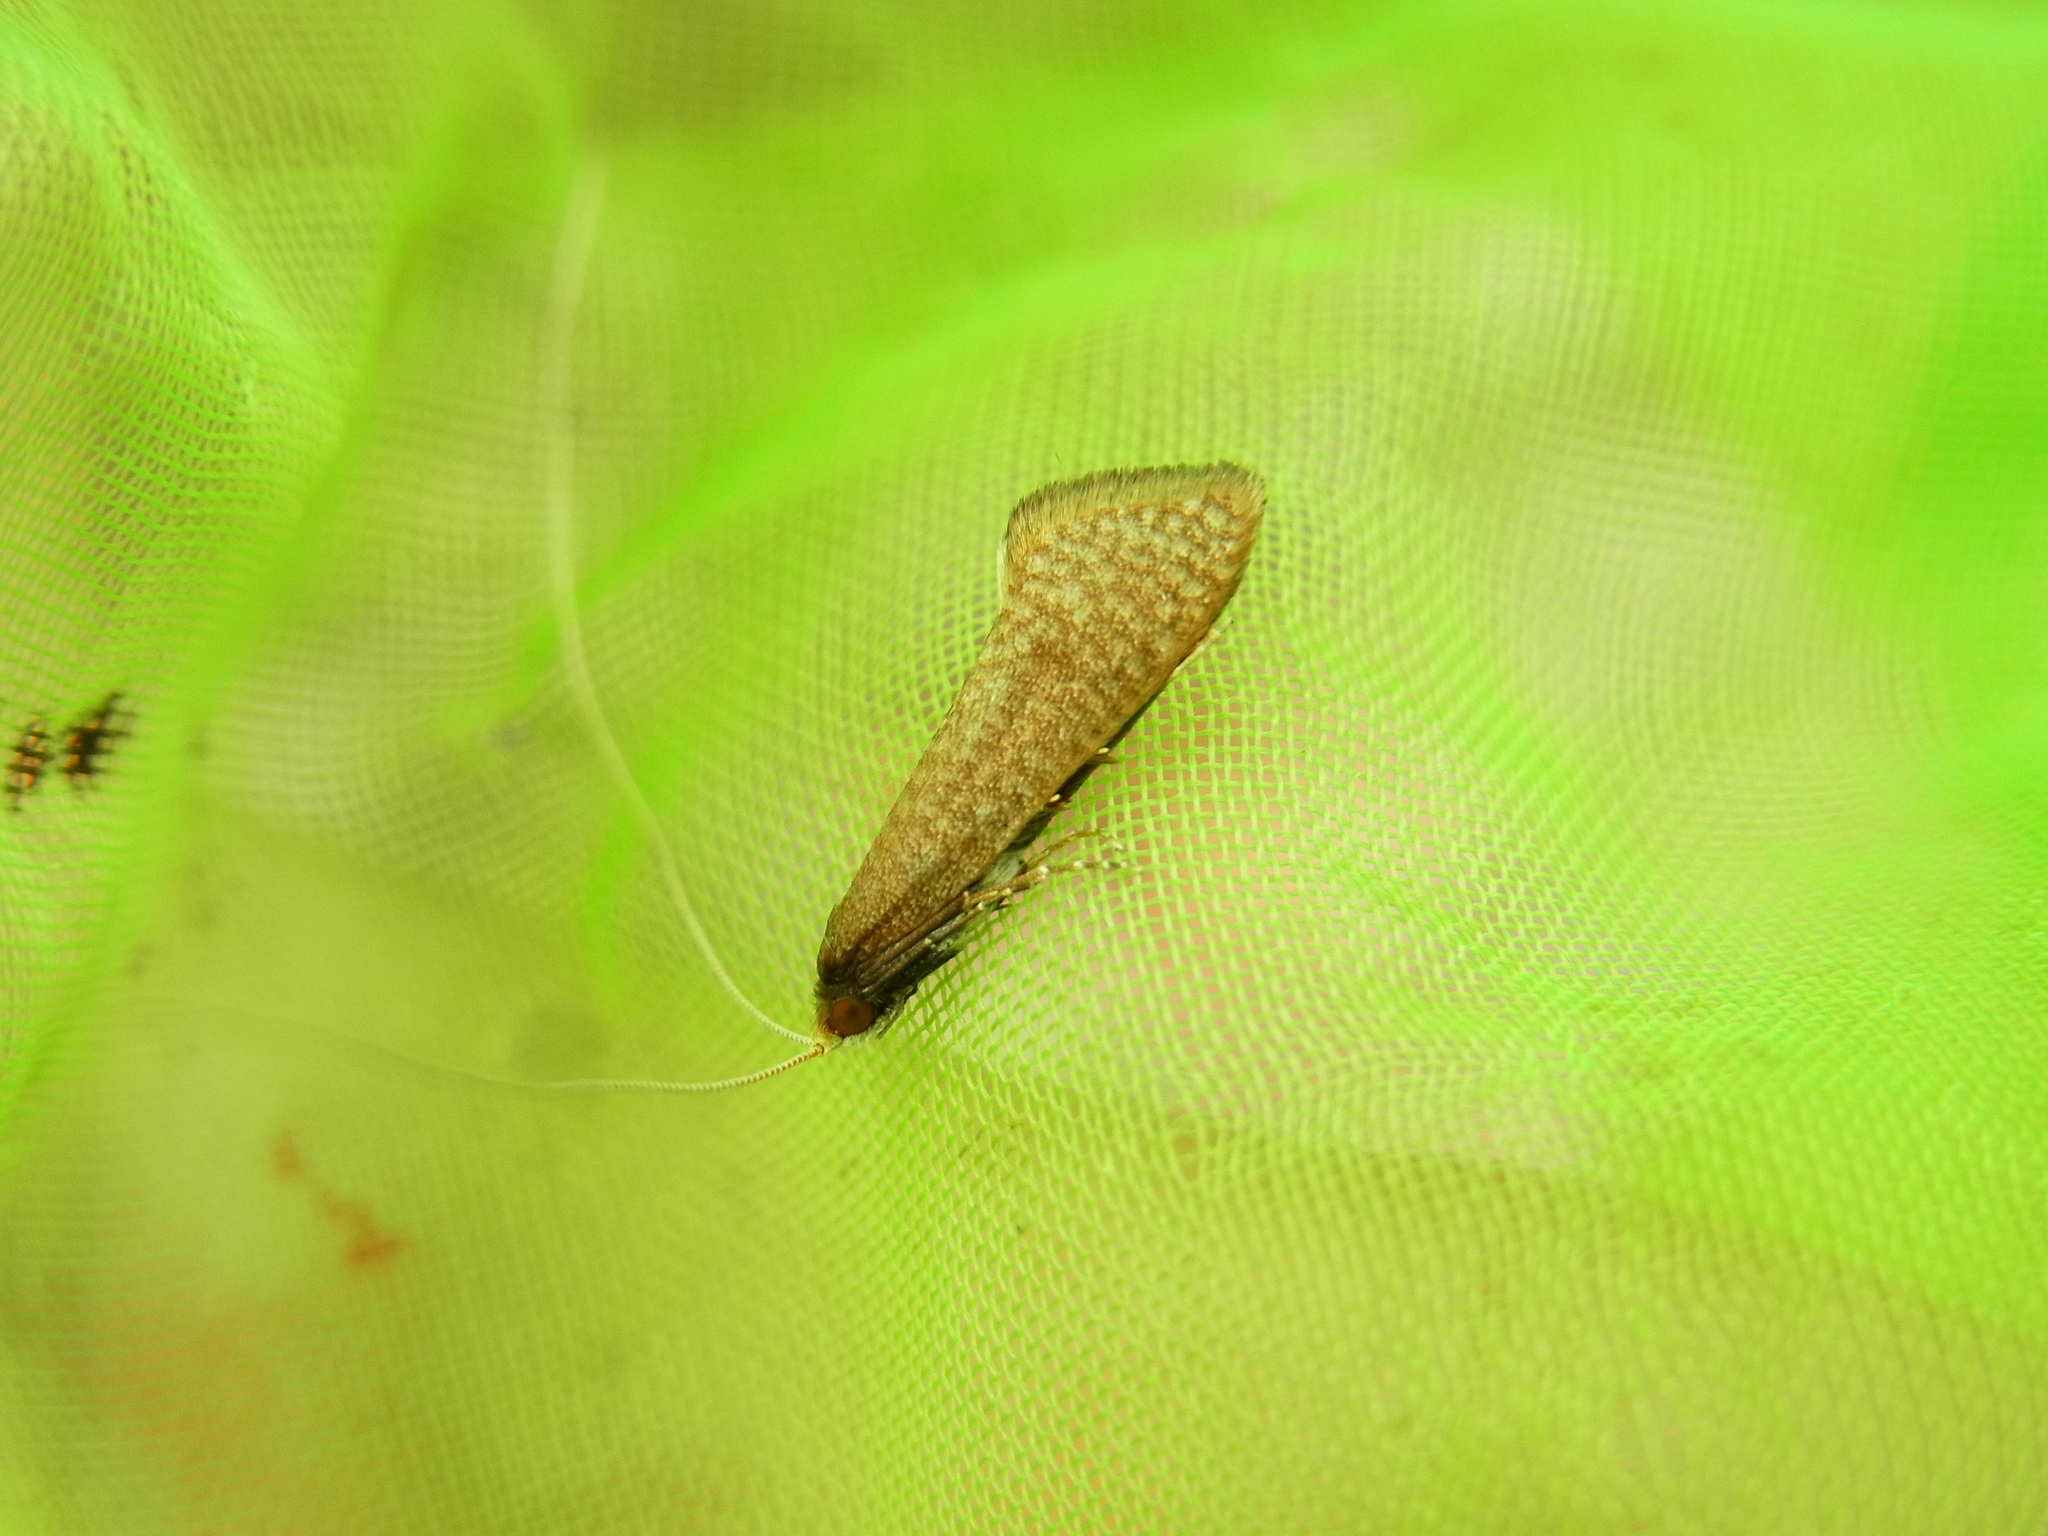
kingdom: Animalia
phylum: Arthropoda
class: Insecta
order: Lepidoptera
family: Adelidae
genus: Nematopogon
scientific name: Nematopogon distincta
